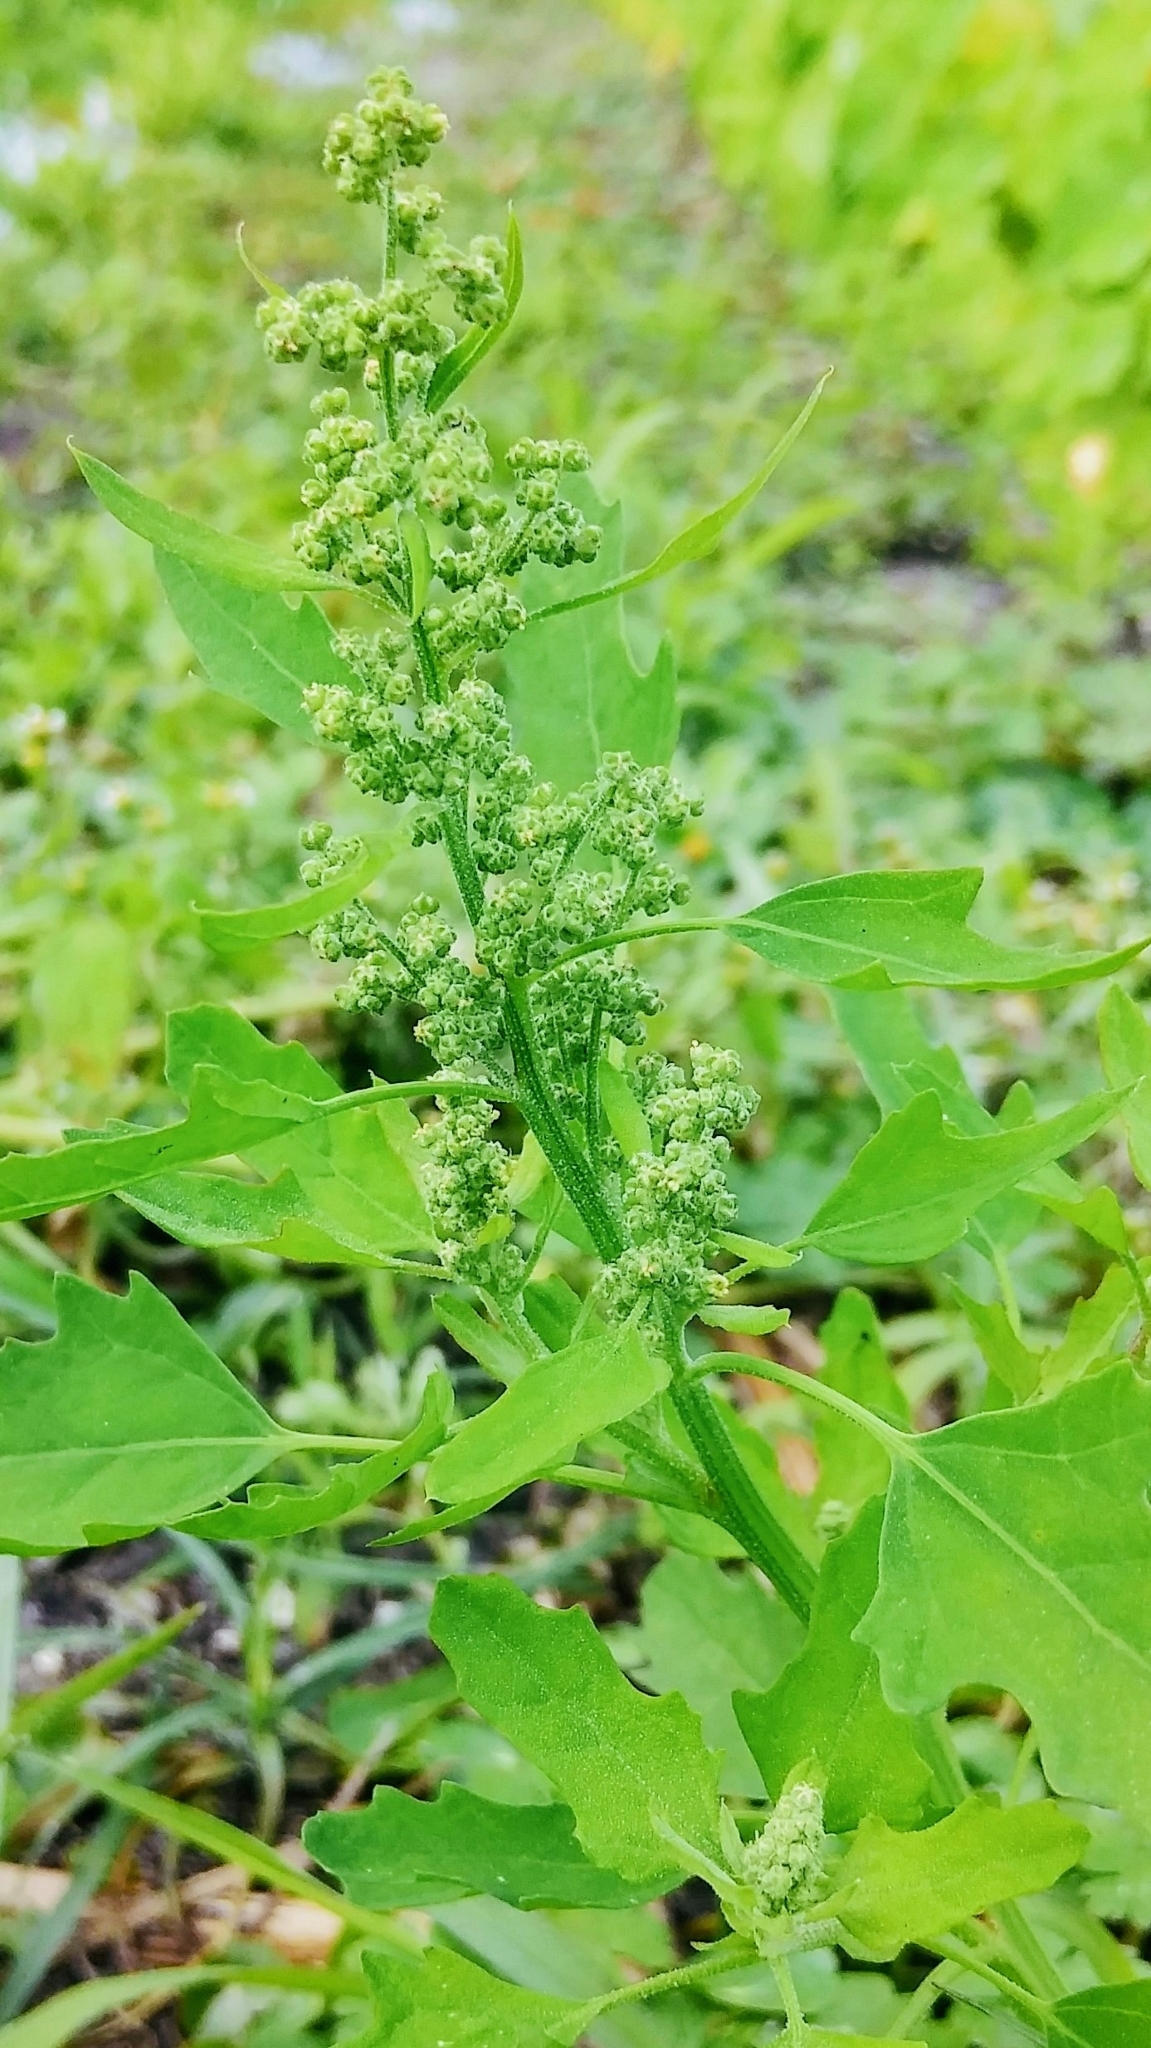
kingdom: Plantae
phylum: Tracheophyta
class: Magnoliopsida
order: Caryophyllales
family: Amaranthaceae
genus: Chenopodium
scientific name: Chenopodium album
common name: Fat-hen
